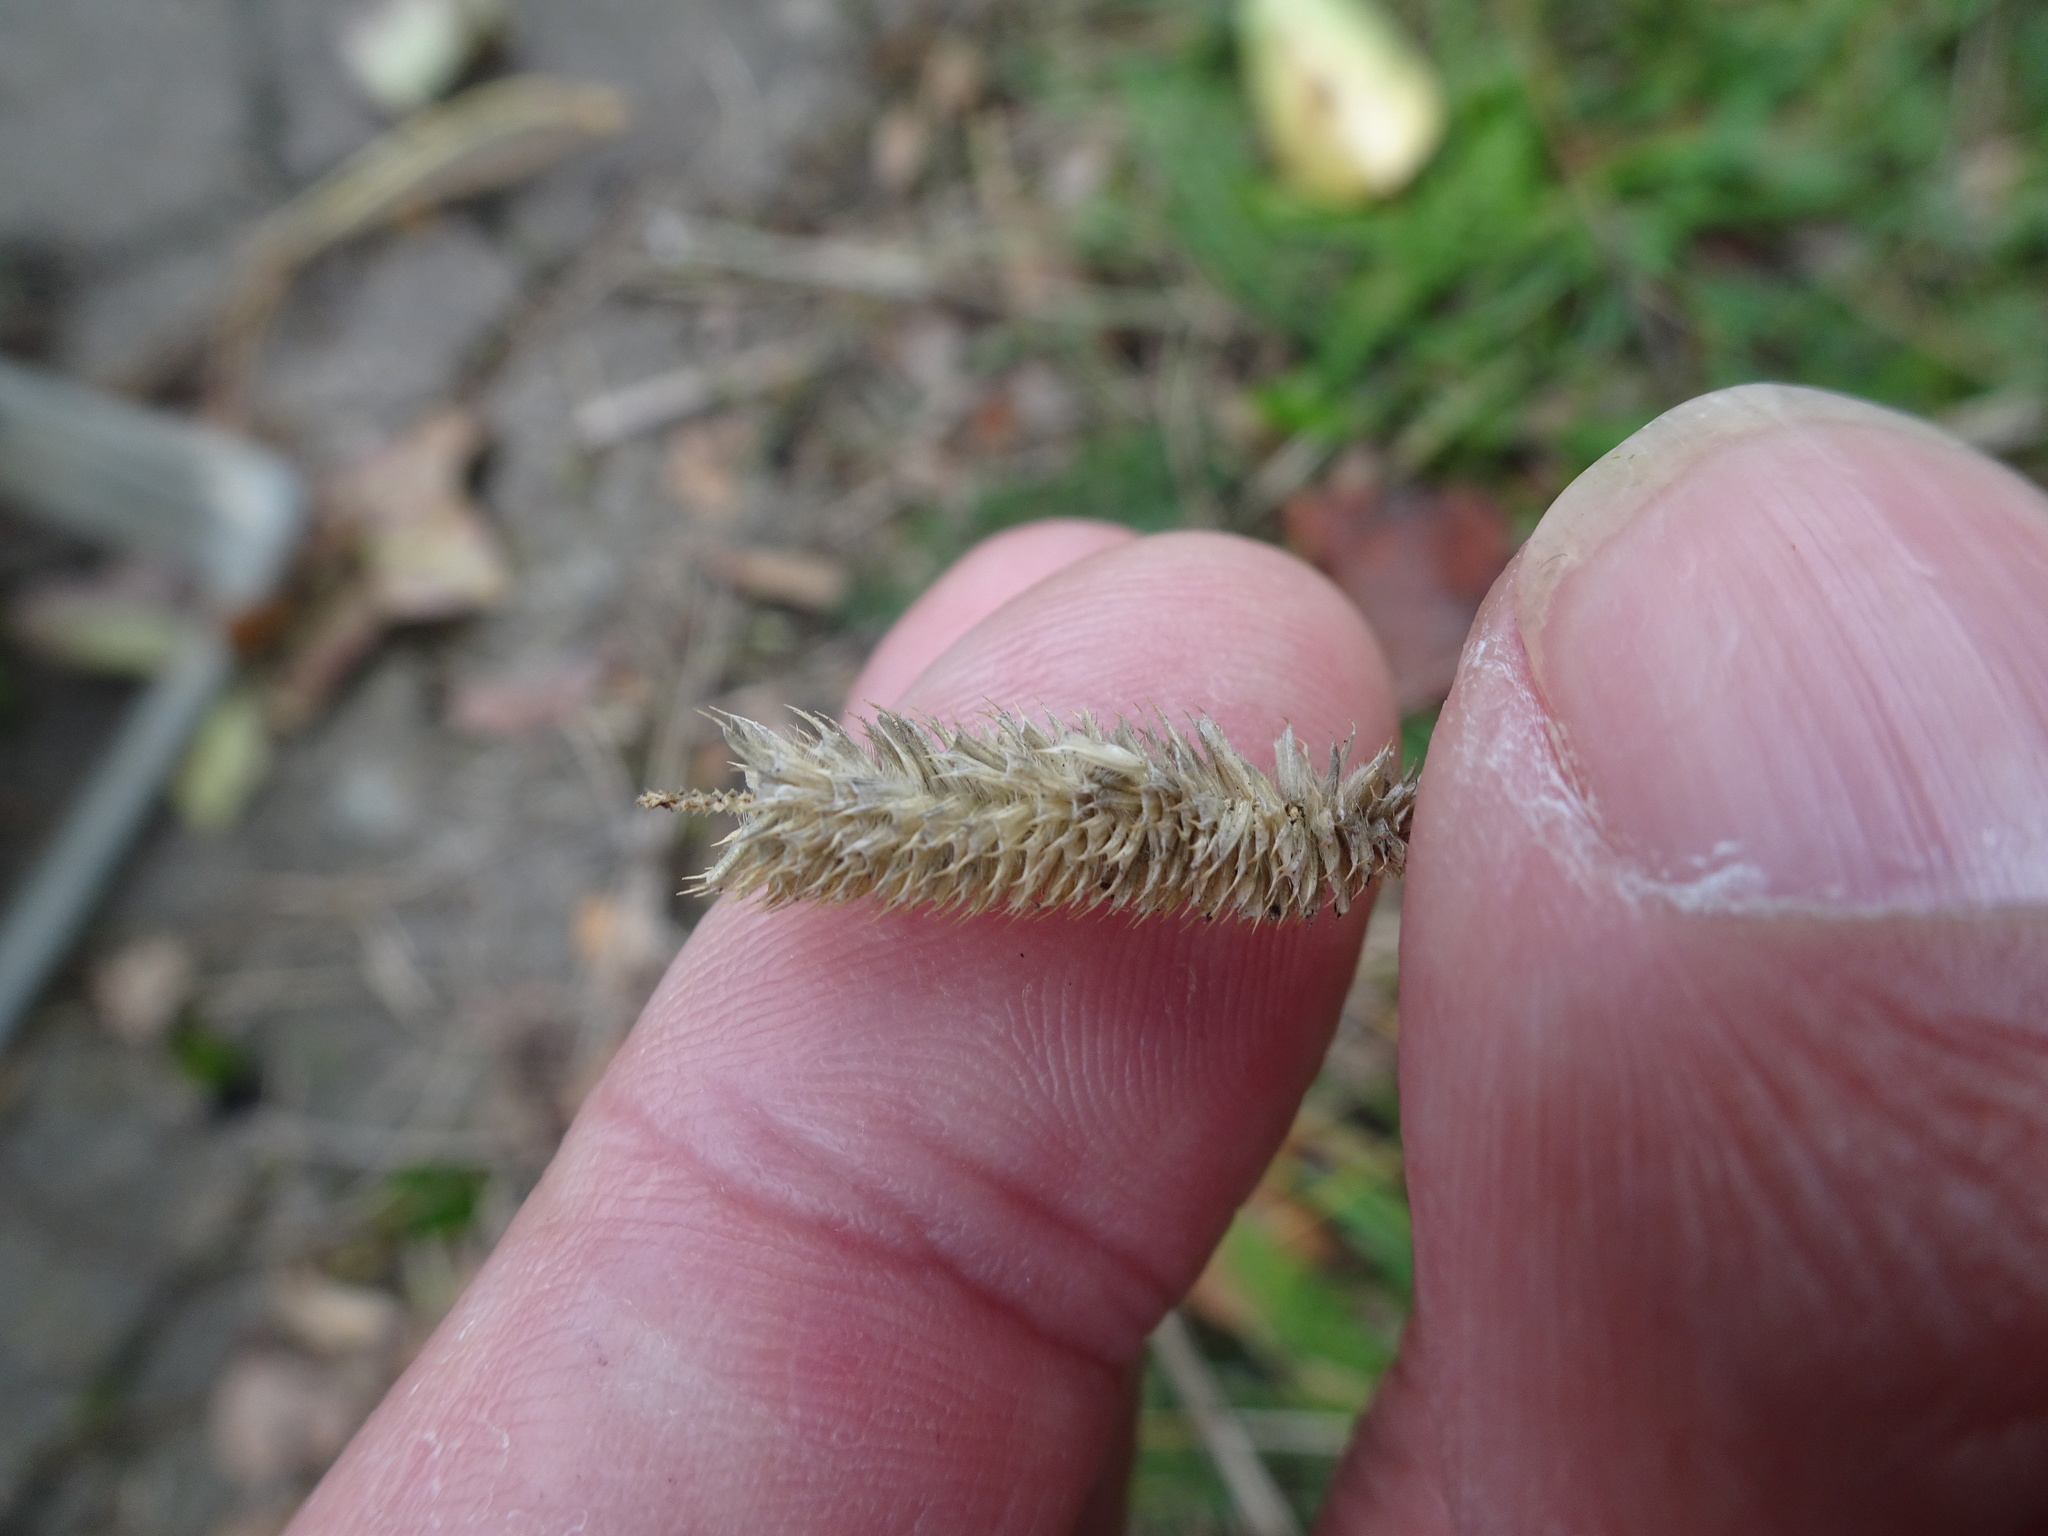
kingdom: Plantae
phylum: Tracheophyta
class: Liliopsida
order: Poales
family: Poaceae
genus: Phleum
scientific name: Phleum pratense
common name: Timothy grass
